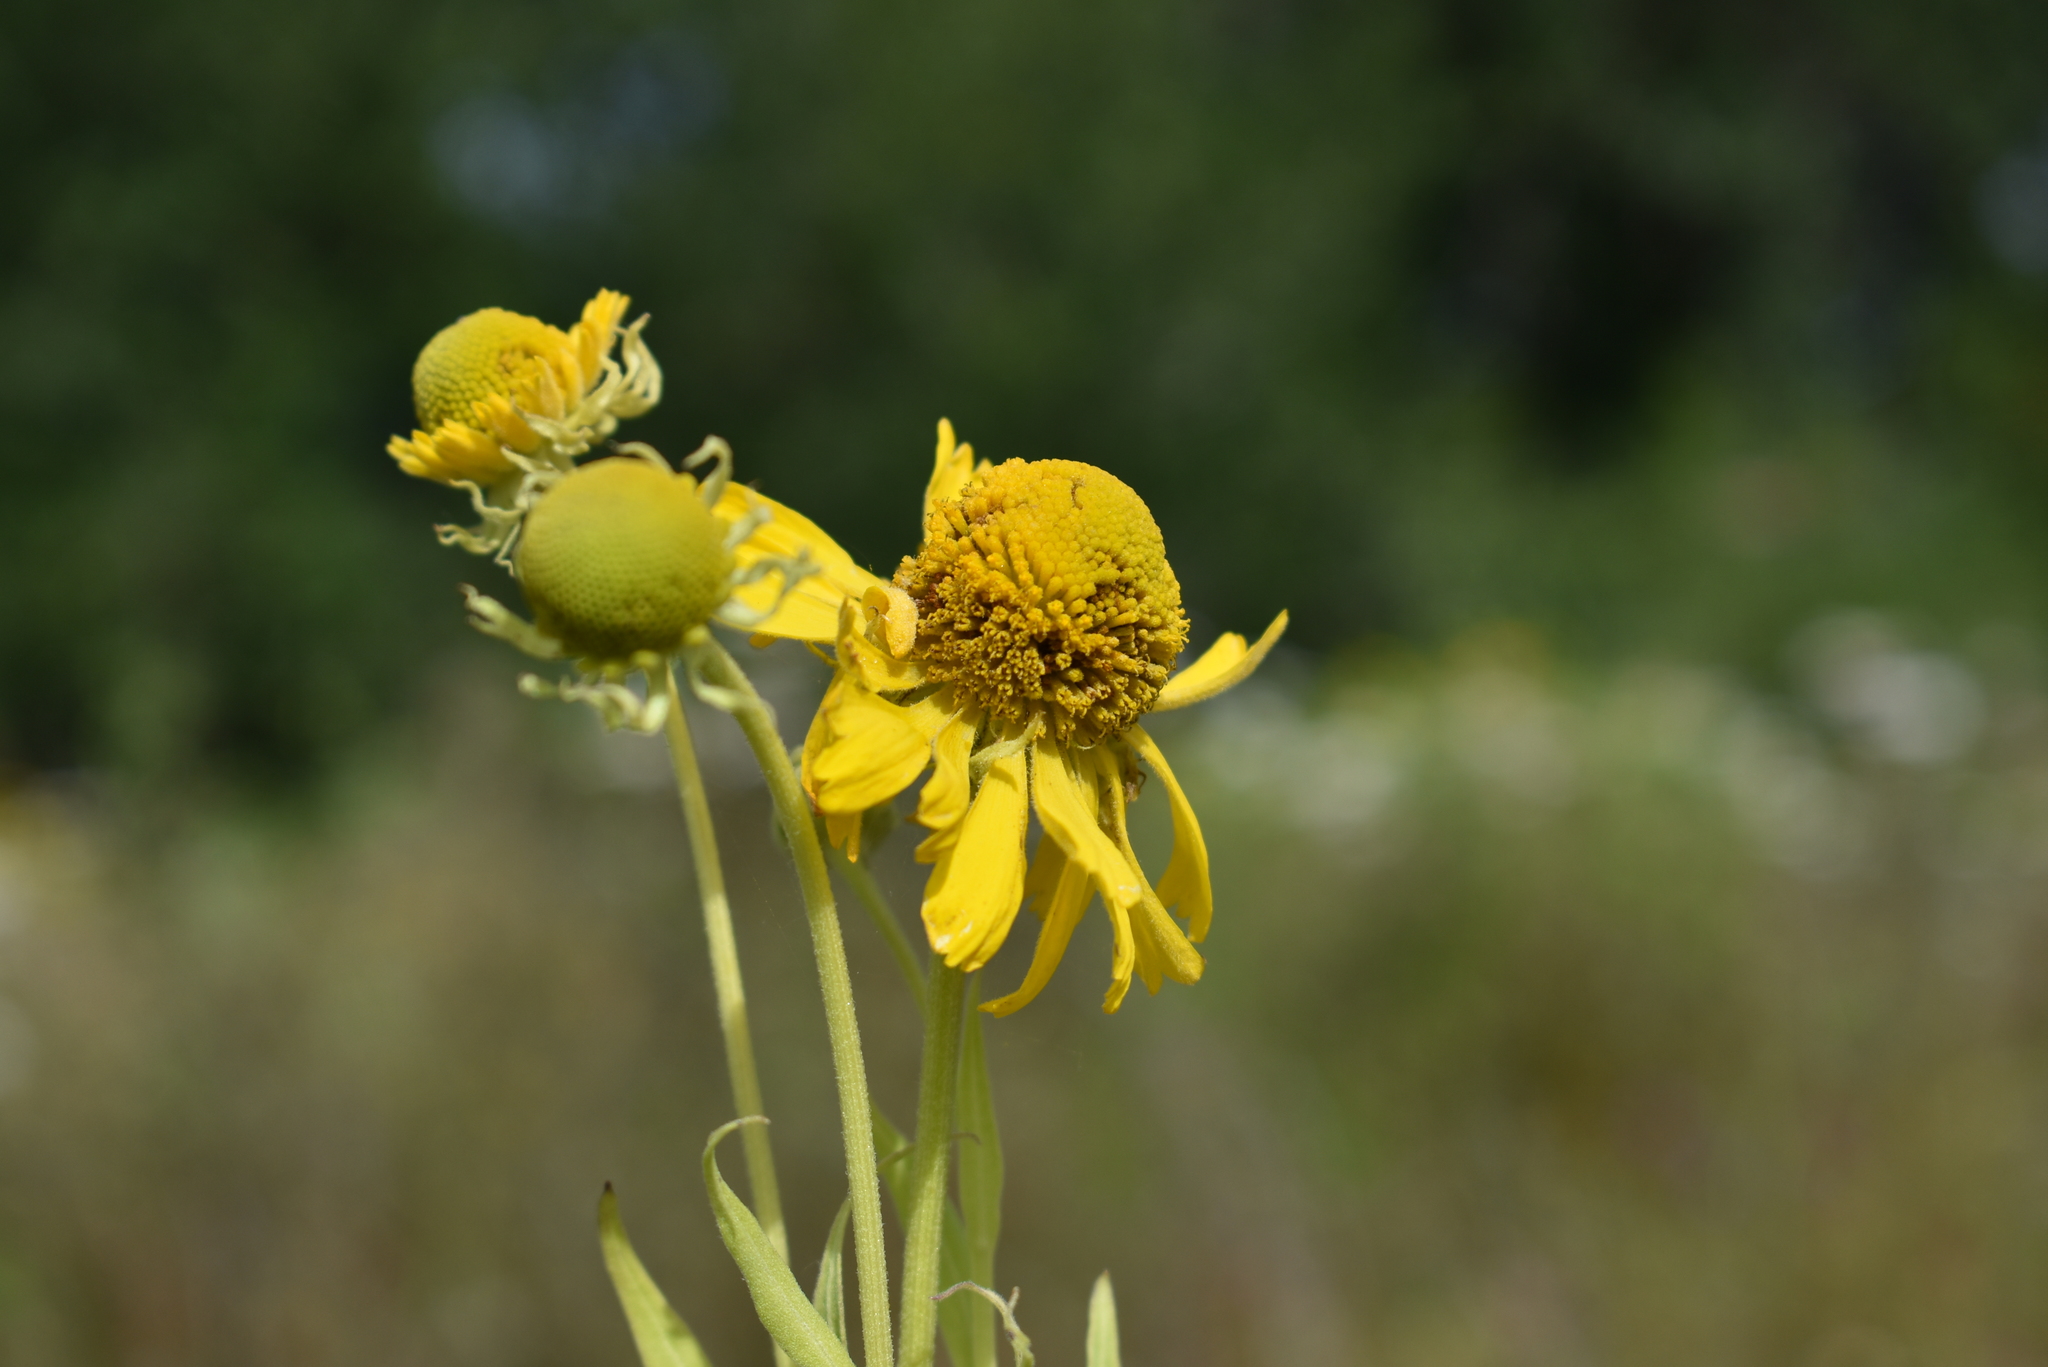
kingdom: Plantae
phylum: Tracheophyta
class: Magnoliopsida
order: Asterales
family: Asteraceae
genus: Helenium
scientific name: Helenium autumnale
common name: Sneezeweed
